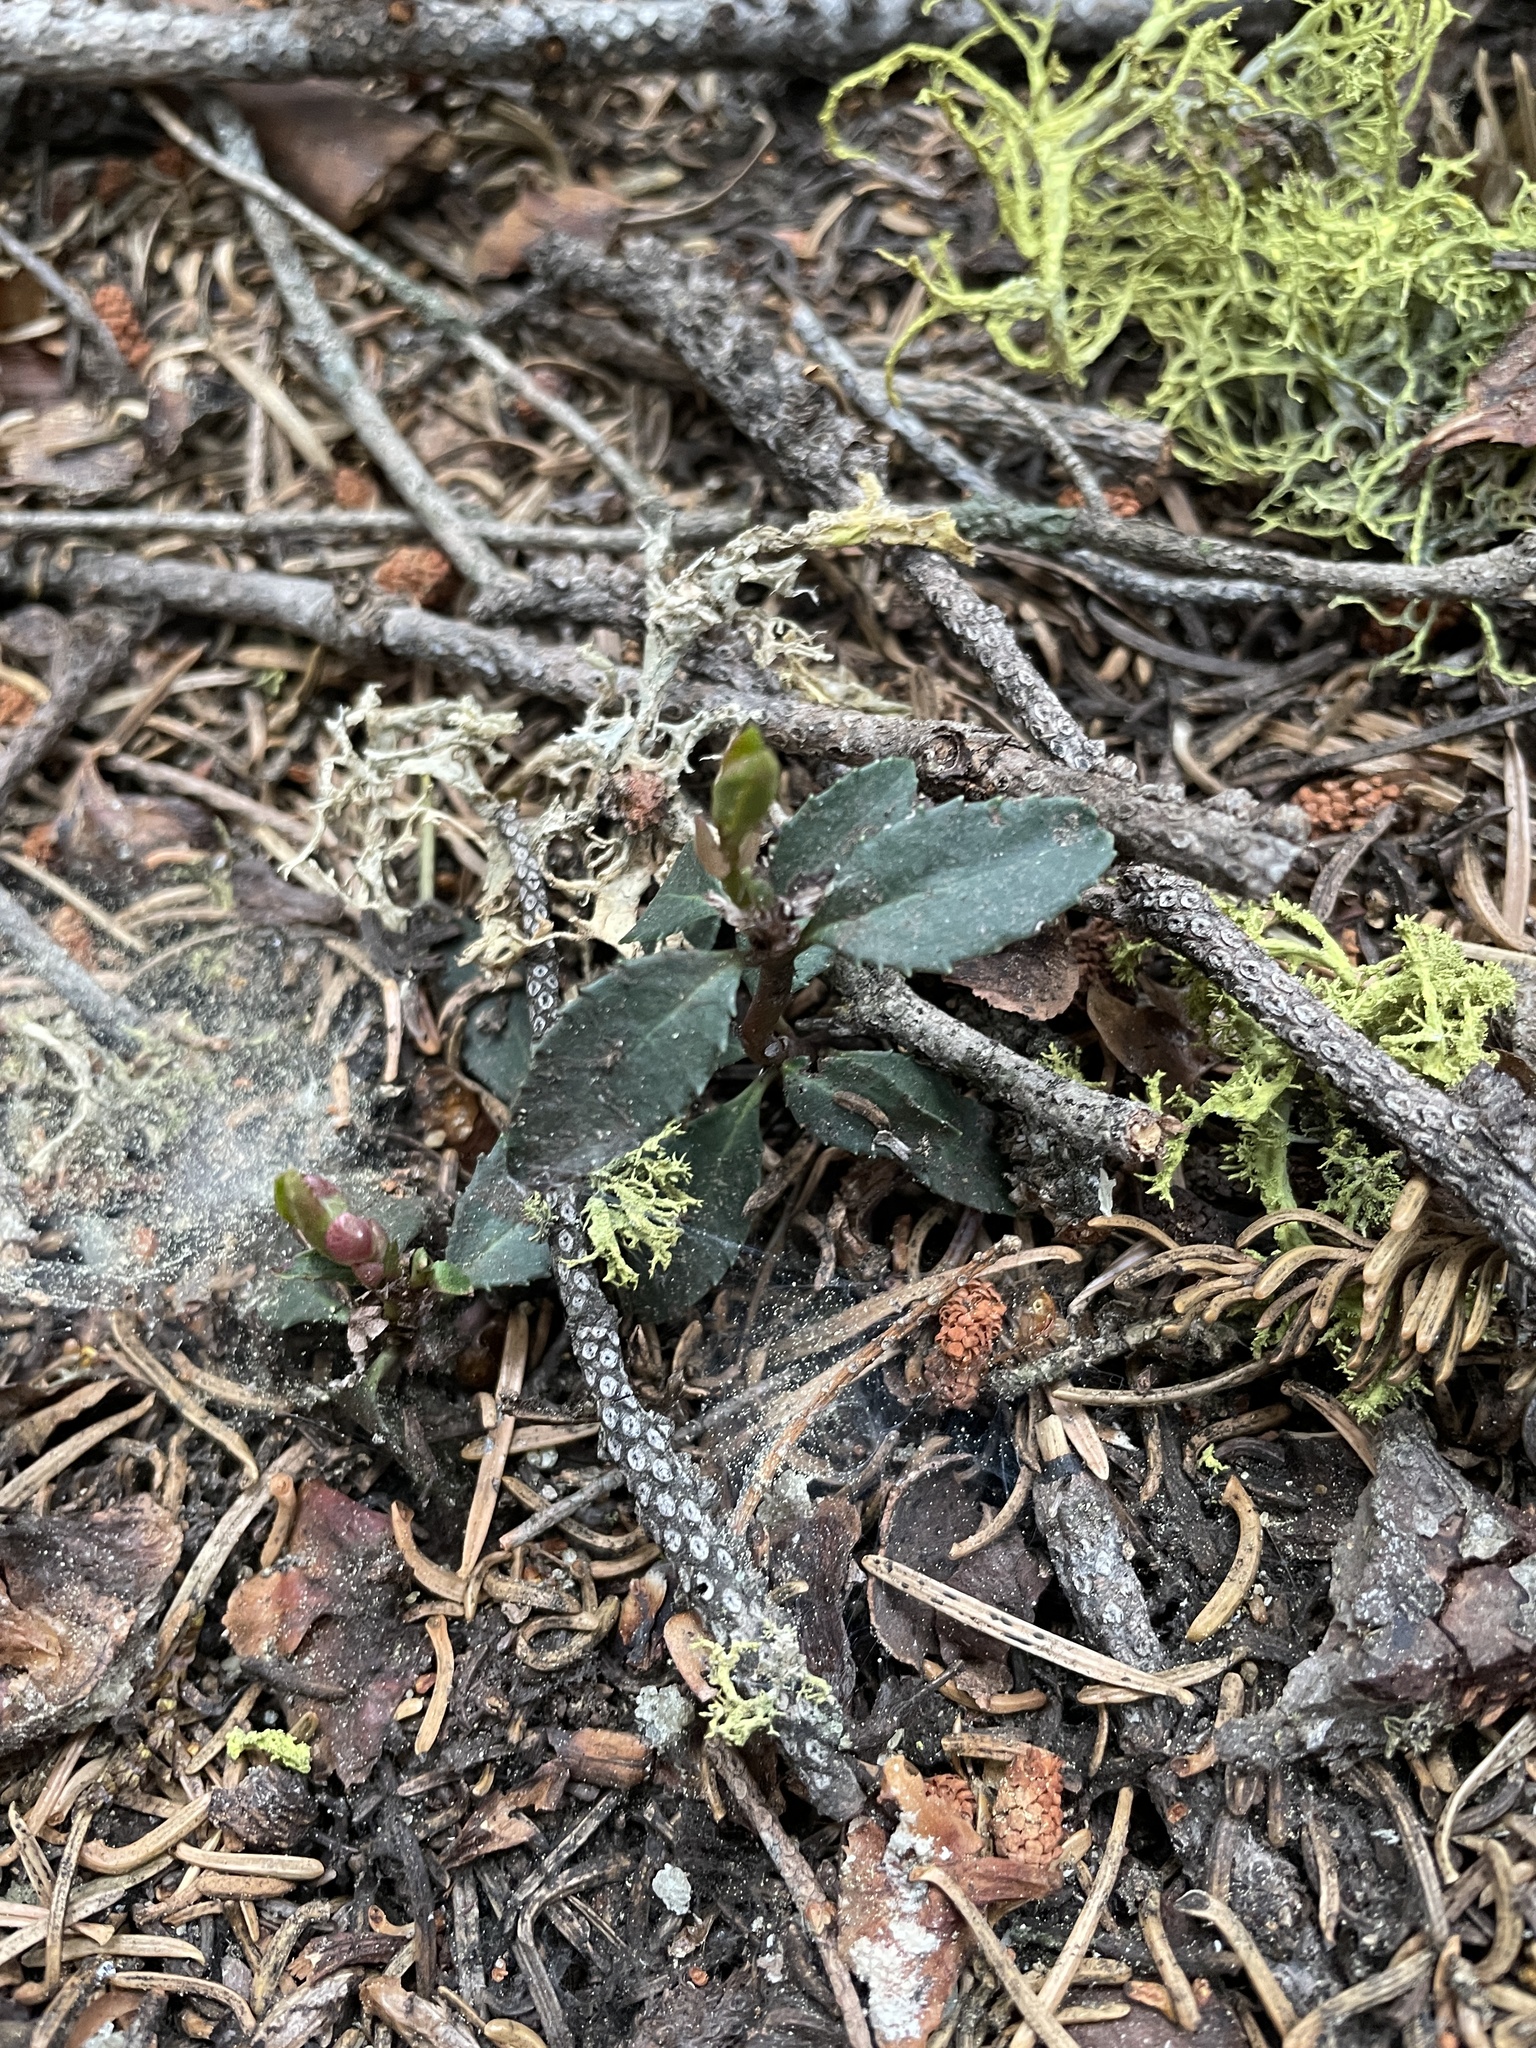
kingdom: Plantae
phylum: Tracheophyta
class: Magnoliopsida
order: Ericales
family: Ericaceae
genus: Chimaphila
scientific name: Chimaphila menziesii
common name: Menzies' pipsissewa
